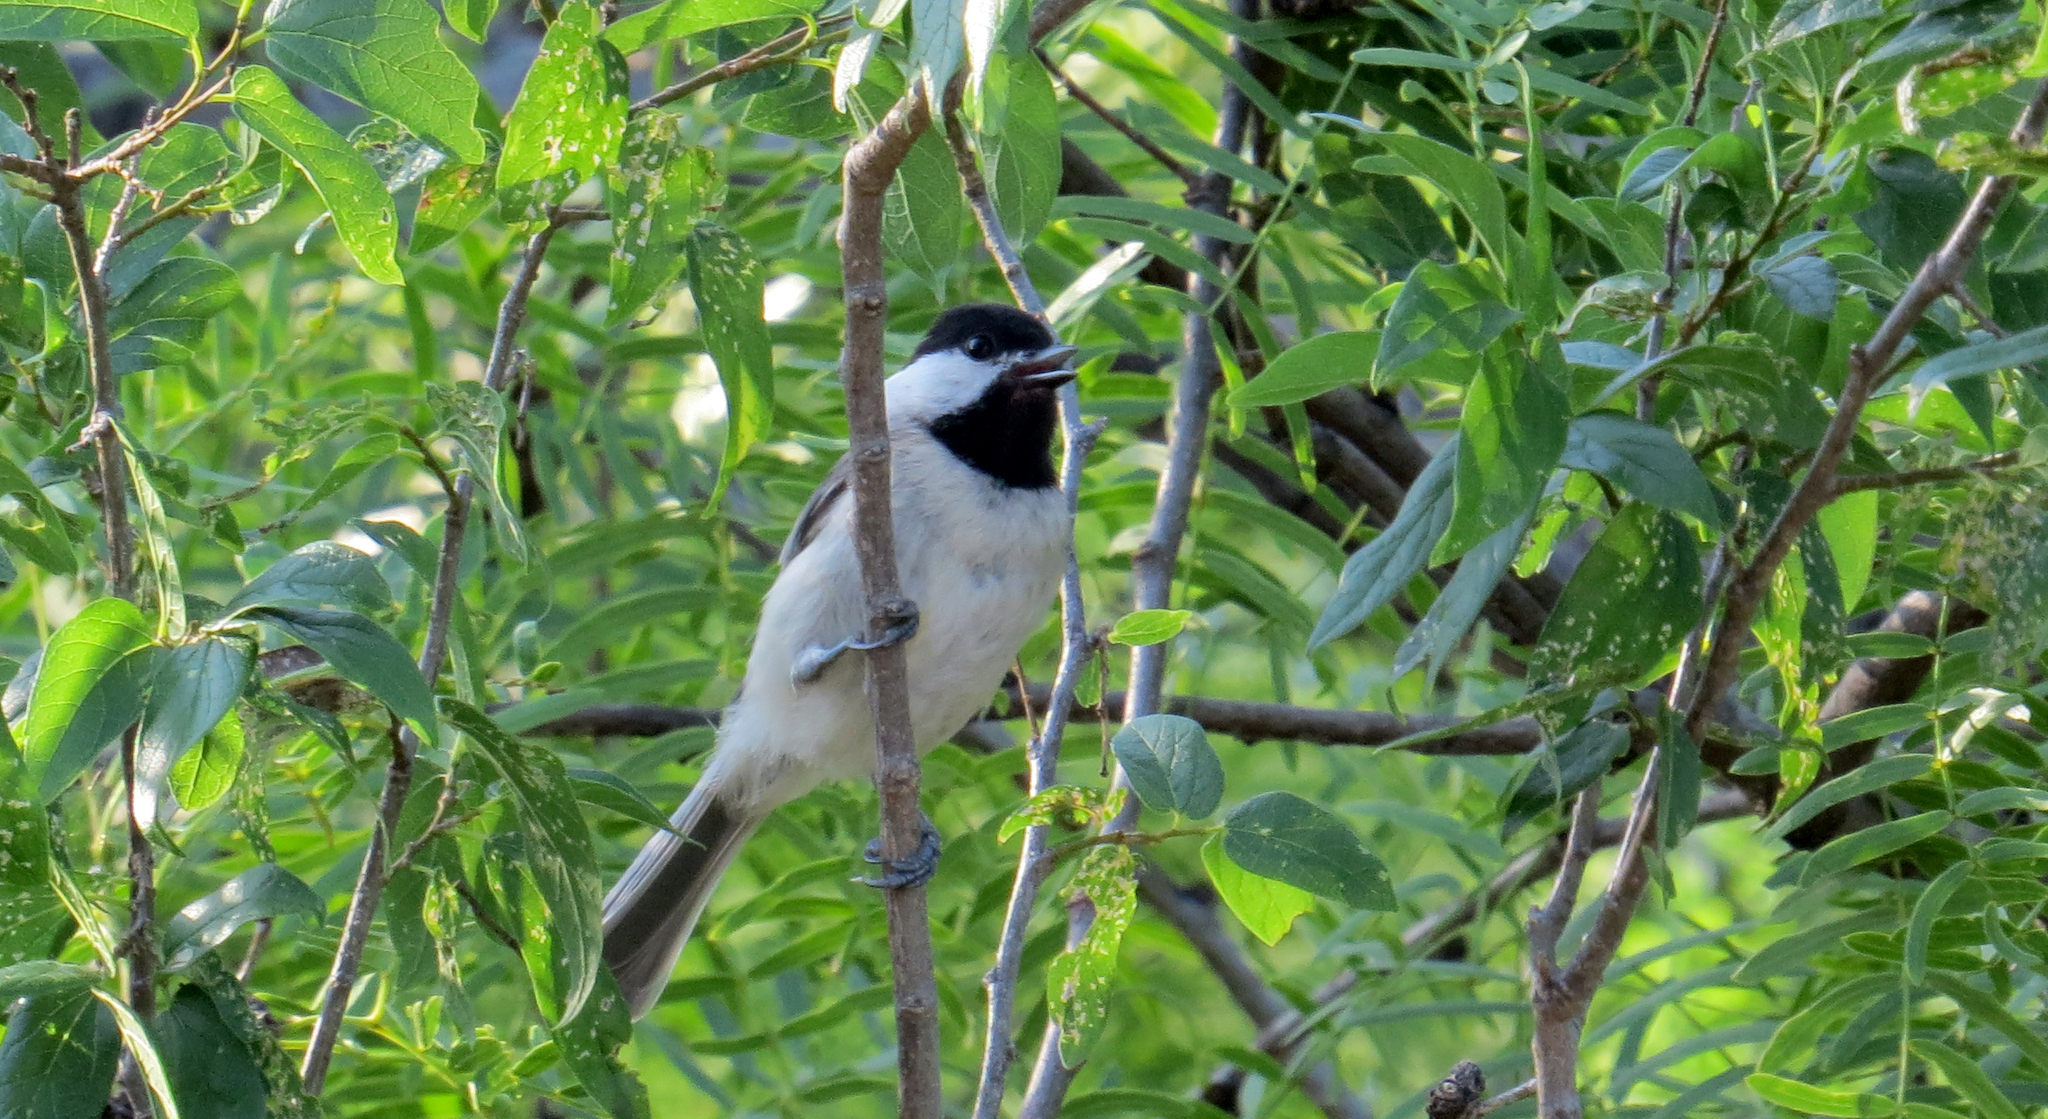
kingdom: Animalia
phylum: Chordata
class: Aves
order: Passeriformes
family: Paridae
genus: Poecile
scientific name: Poecile carolinensis
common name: Carolina chickadee
